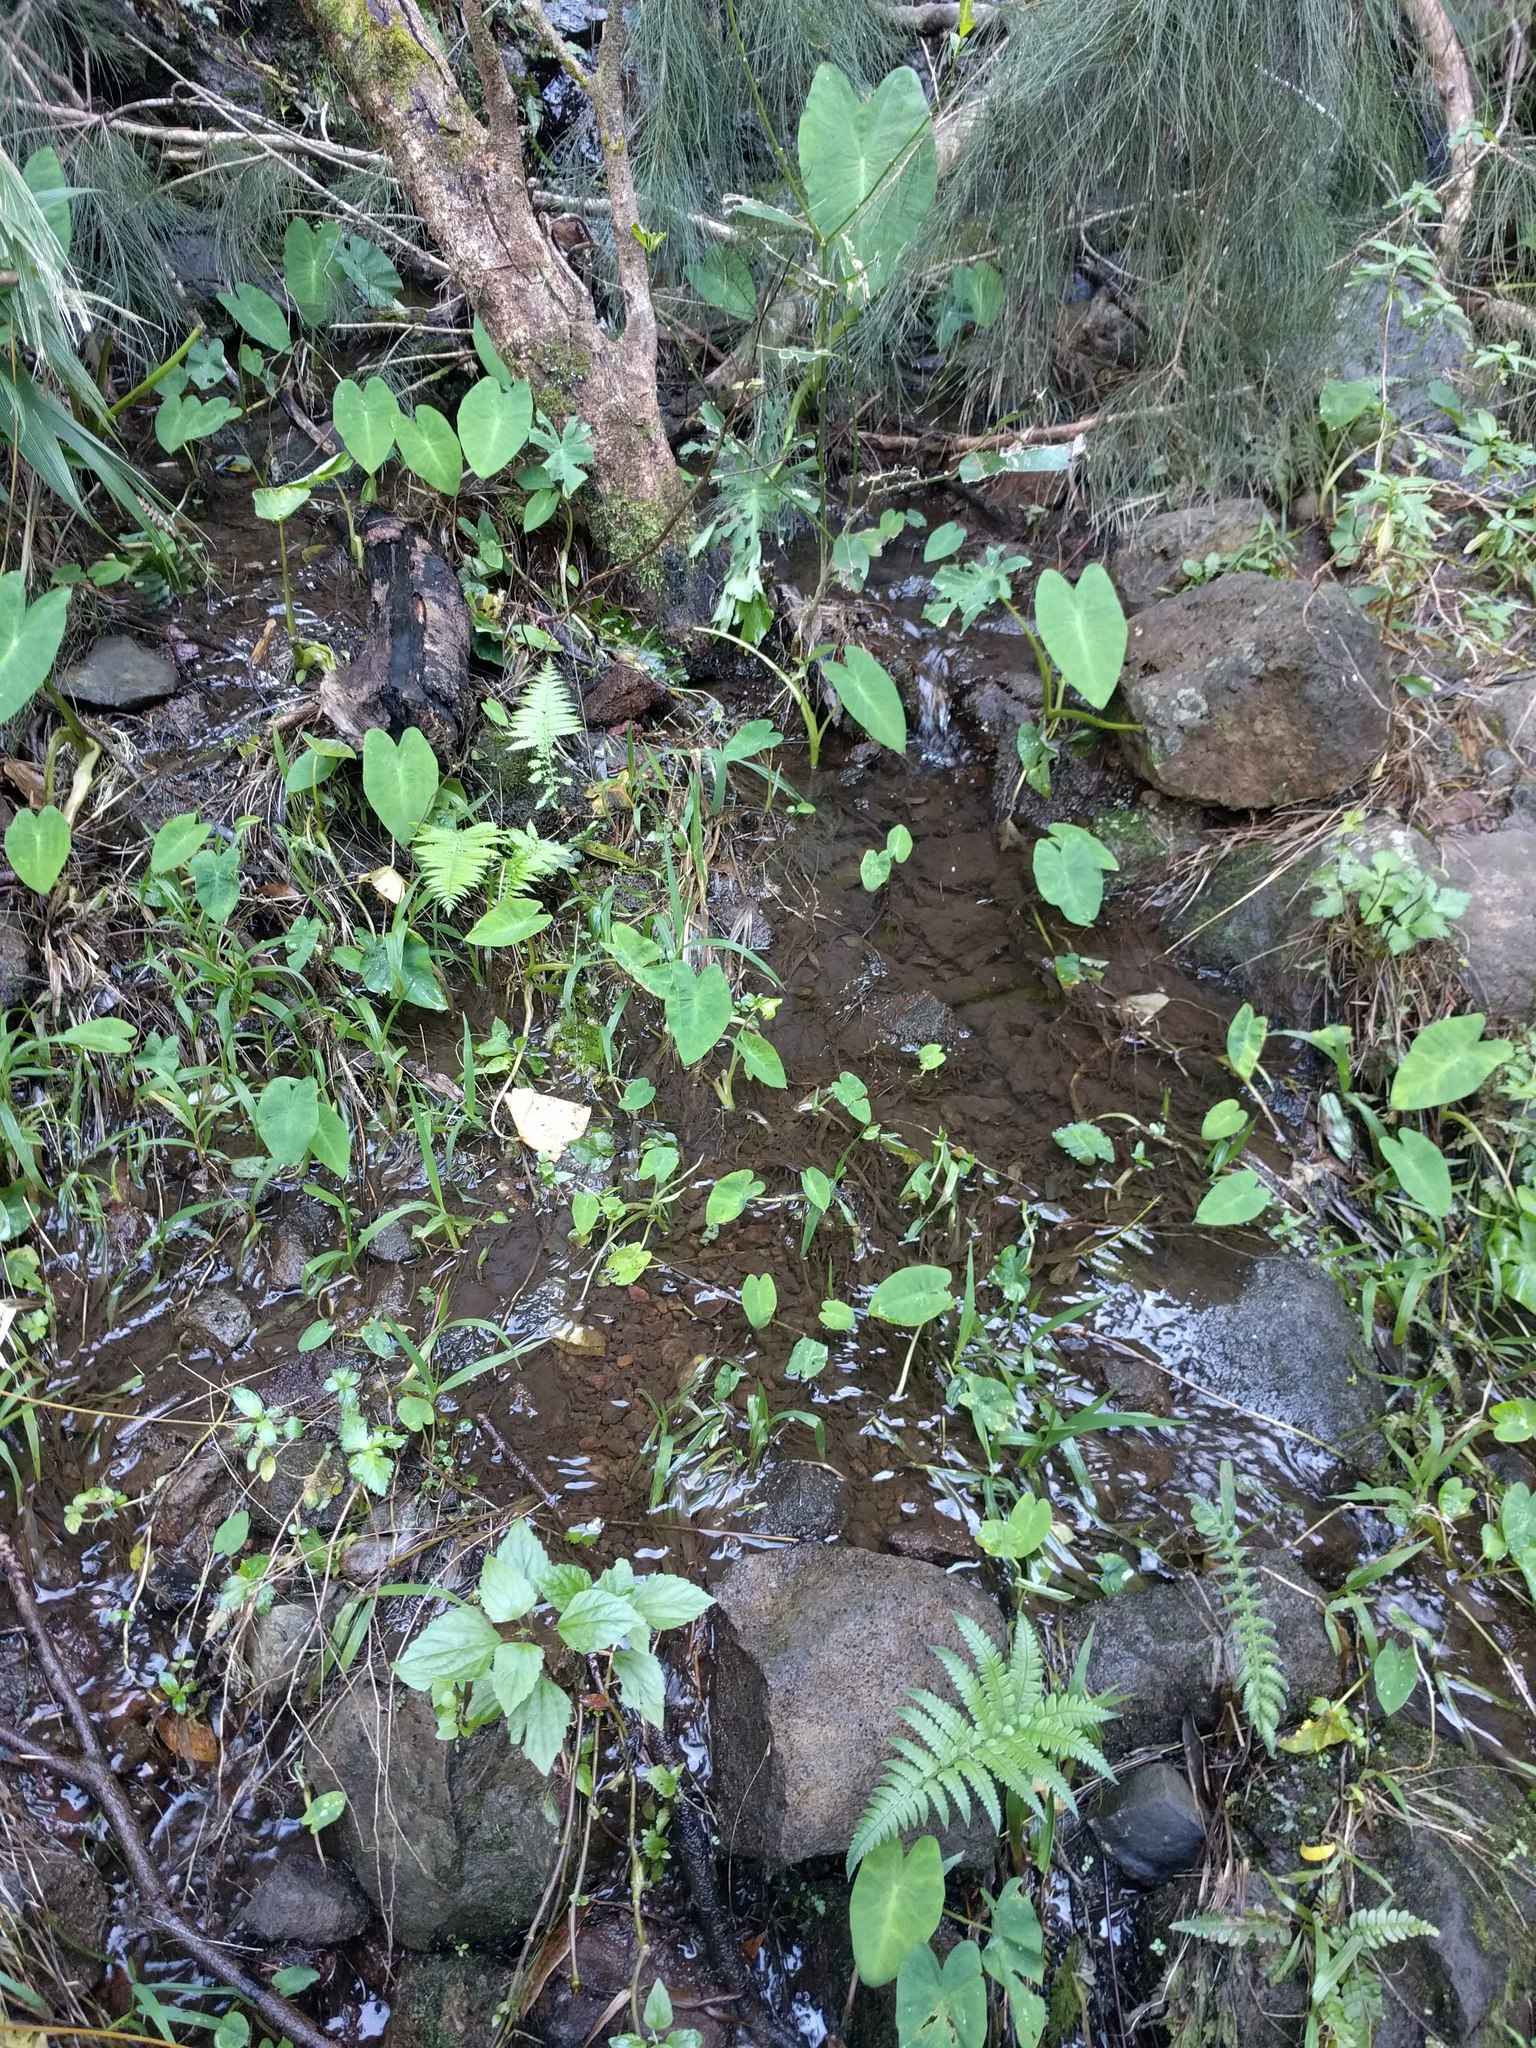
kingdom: Plantae
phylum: Tracheophyta
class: Liliopsida
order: Alismatales
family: Araceae
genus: Colocasia
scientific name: Colocasia esculenta
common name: Taro
